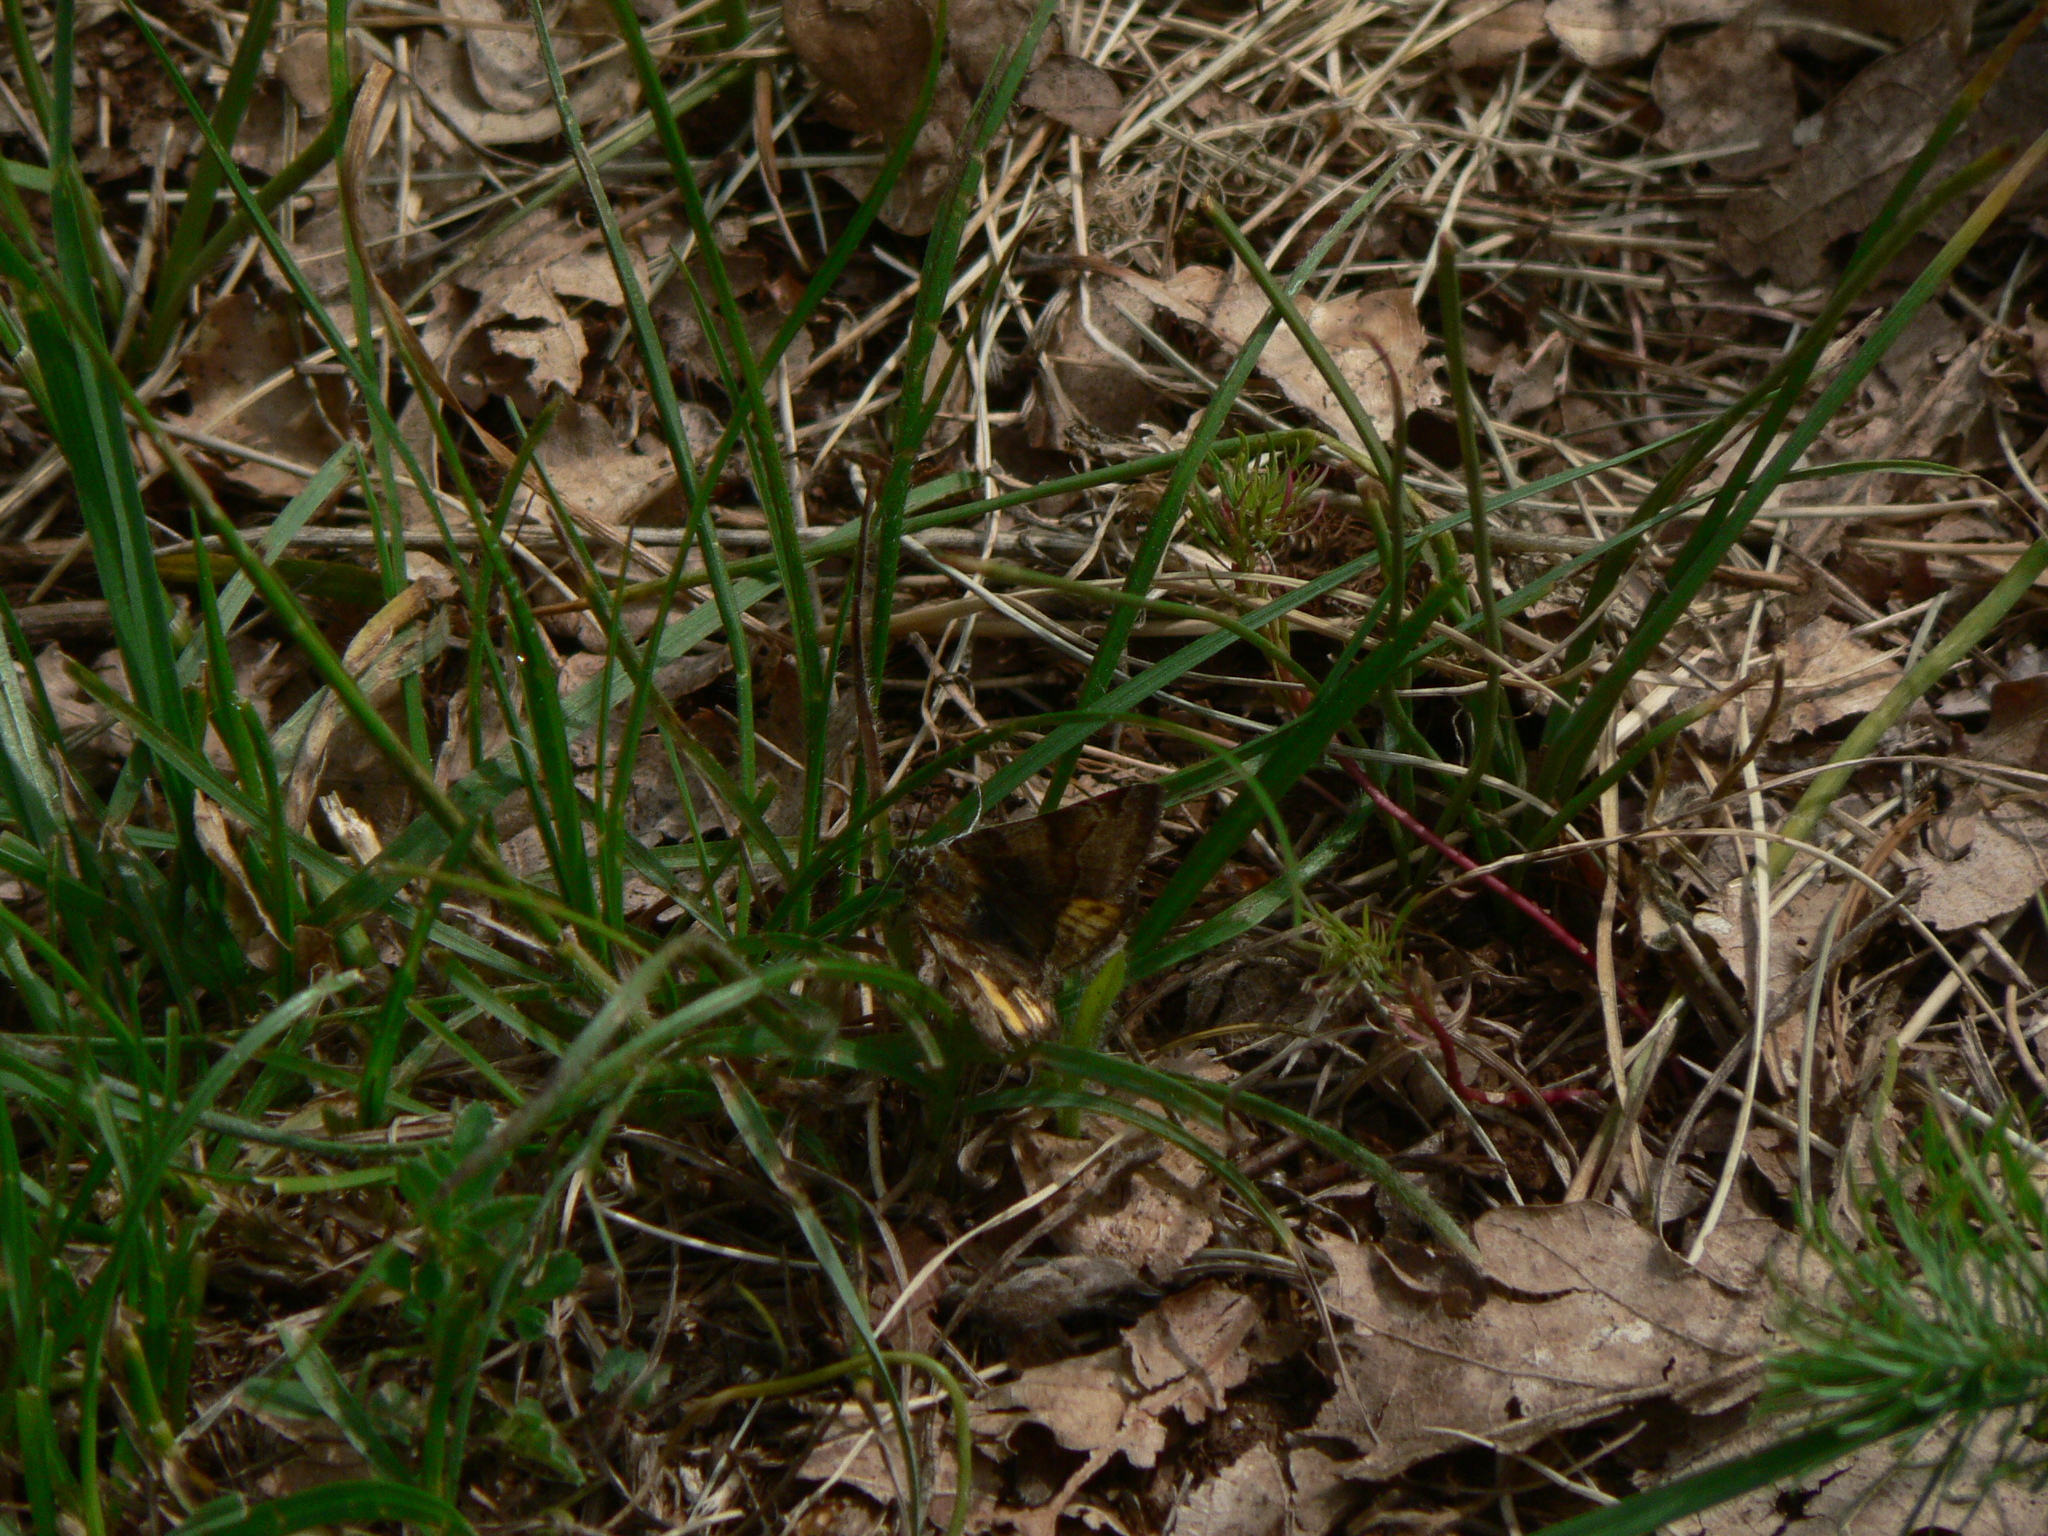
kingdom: Animalia
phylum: Arthropoda
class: Insecta
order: Lepidoptera
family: Erebidae
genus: Euclidia
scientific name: Euclidia glyphica
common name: Burnet companion
